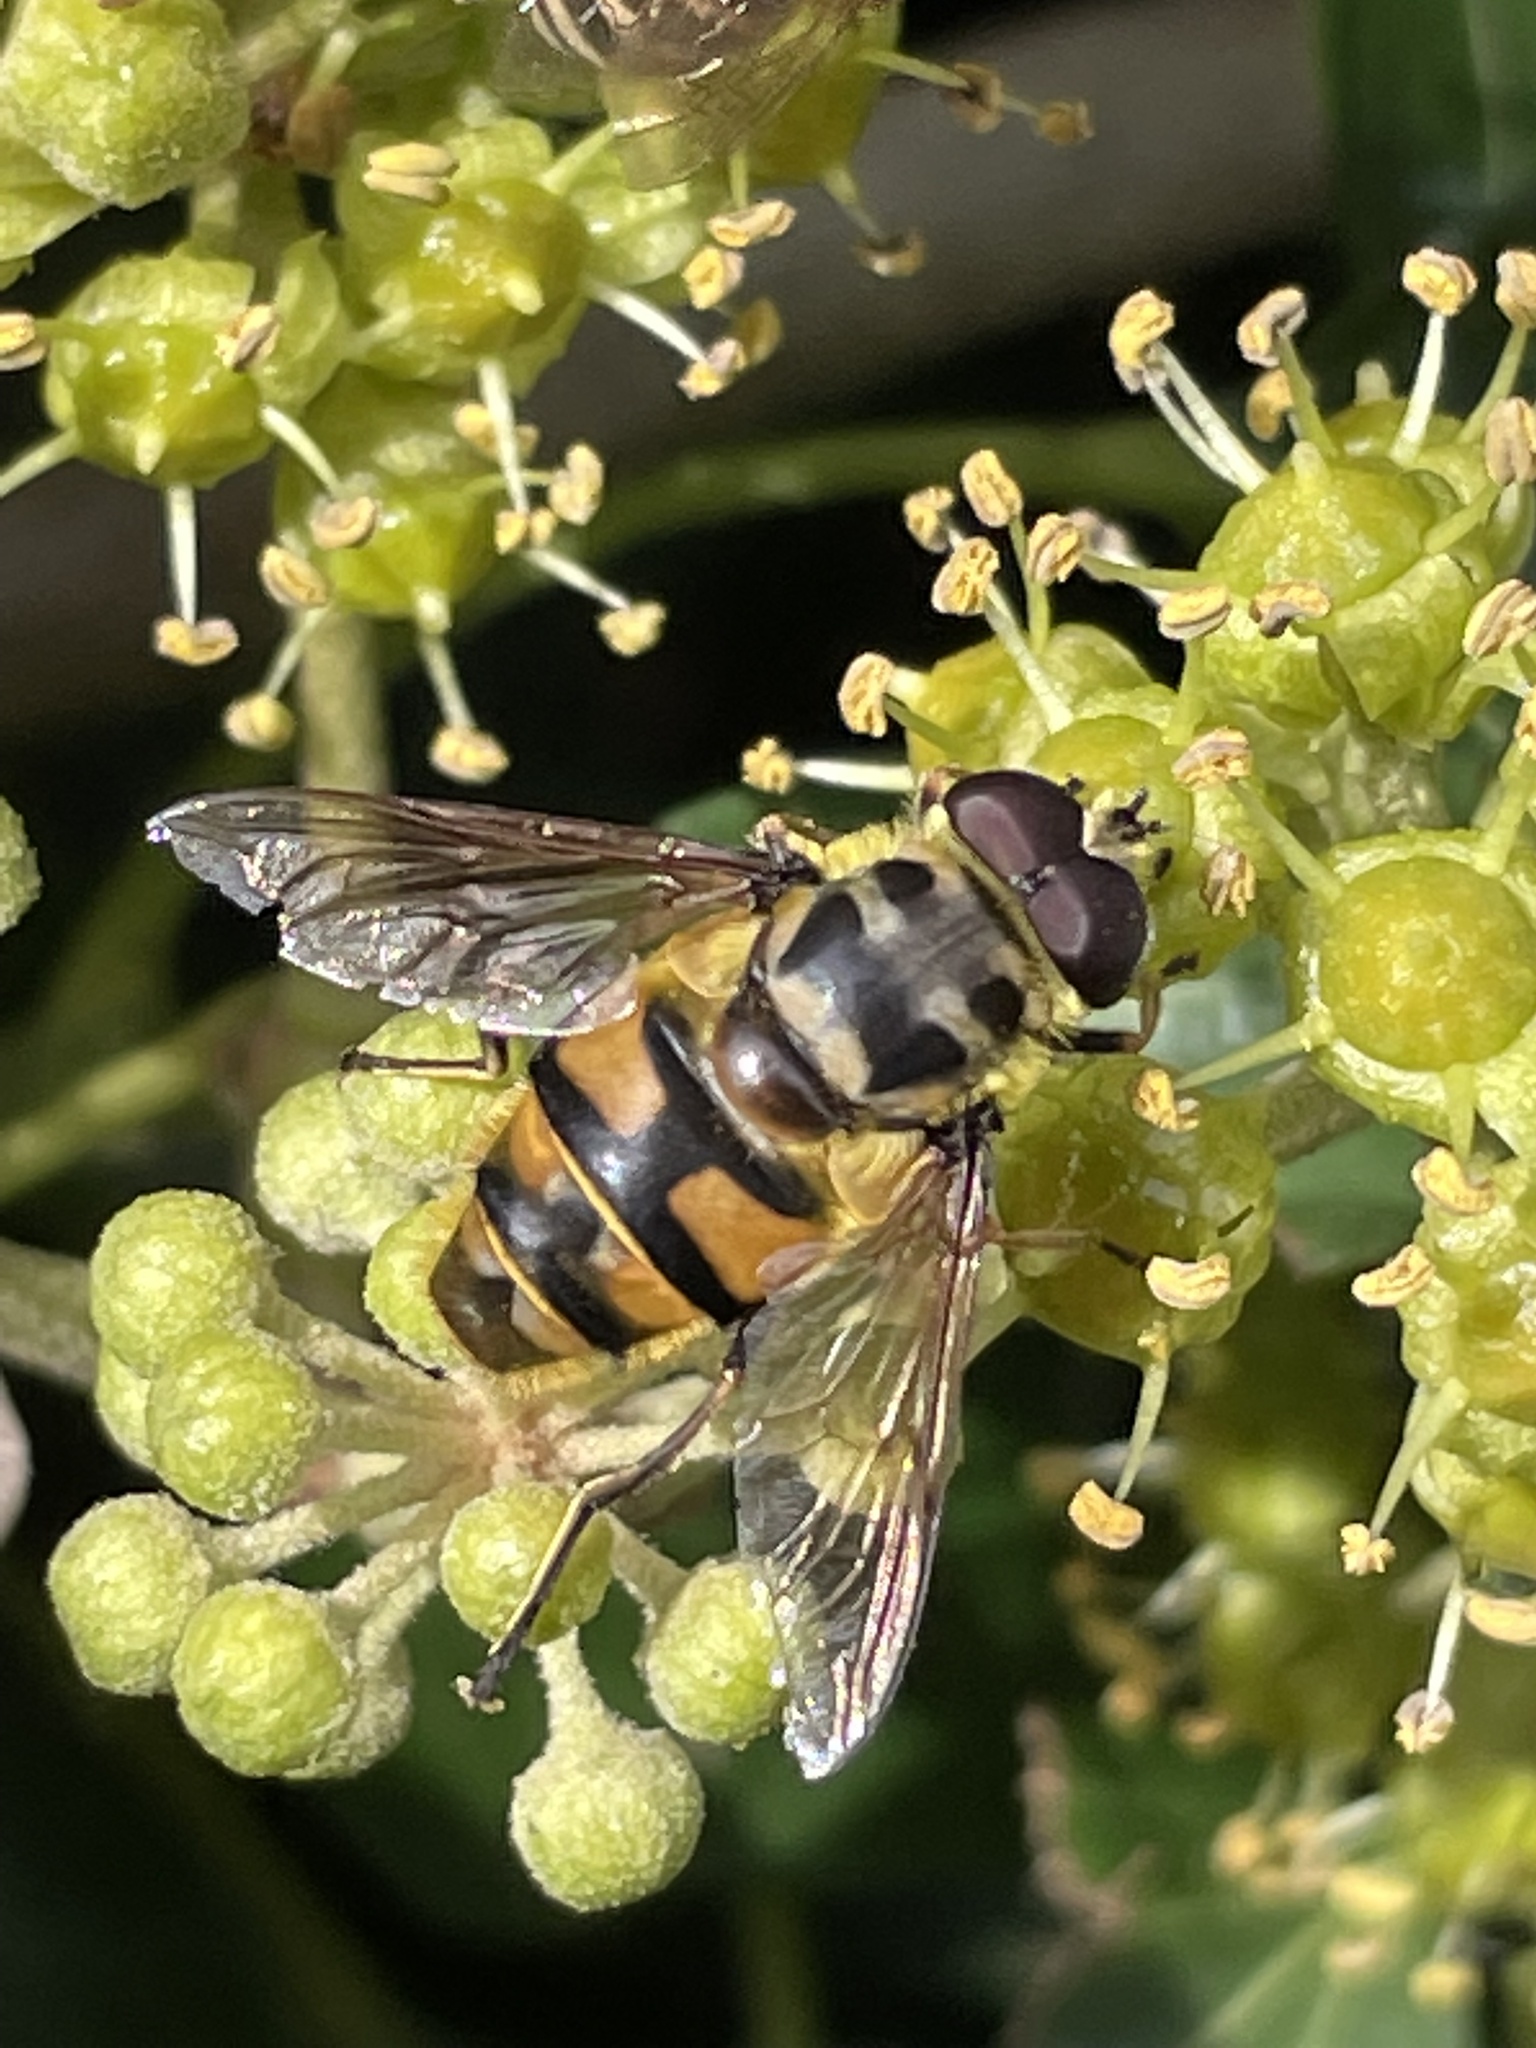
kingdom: Animalia
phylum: Arthropoda
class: Insecta
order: Diptera
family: Syrphidae
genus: Myathropa
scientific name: Myathropa florea
